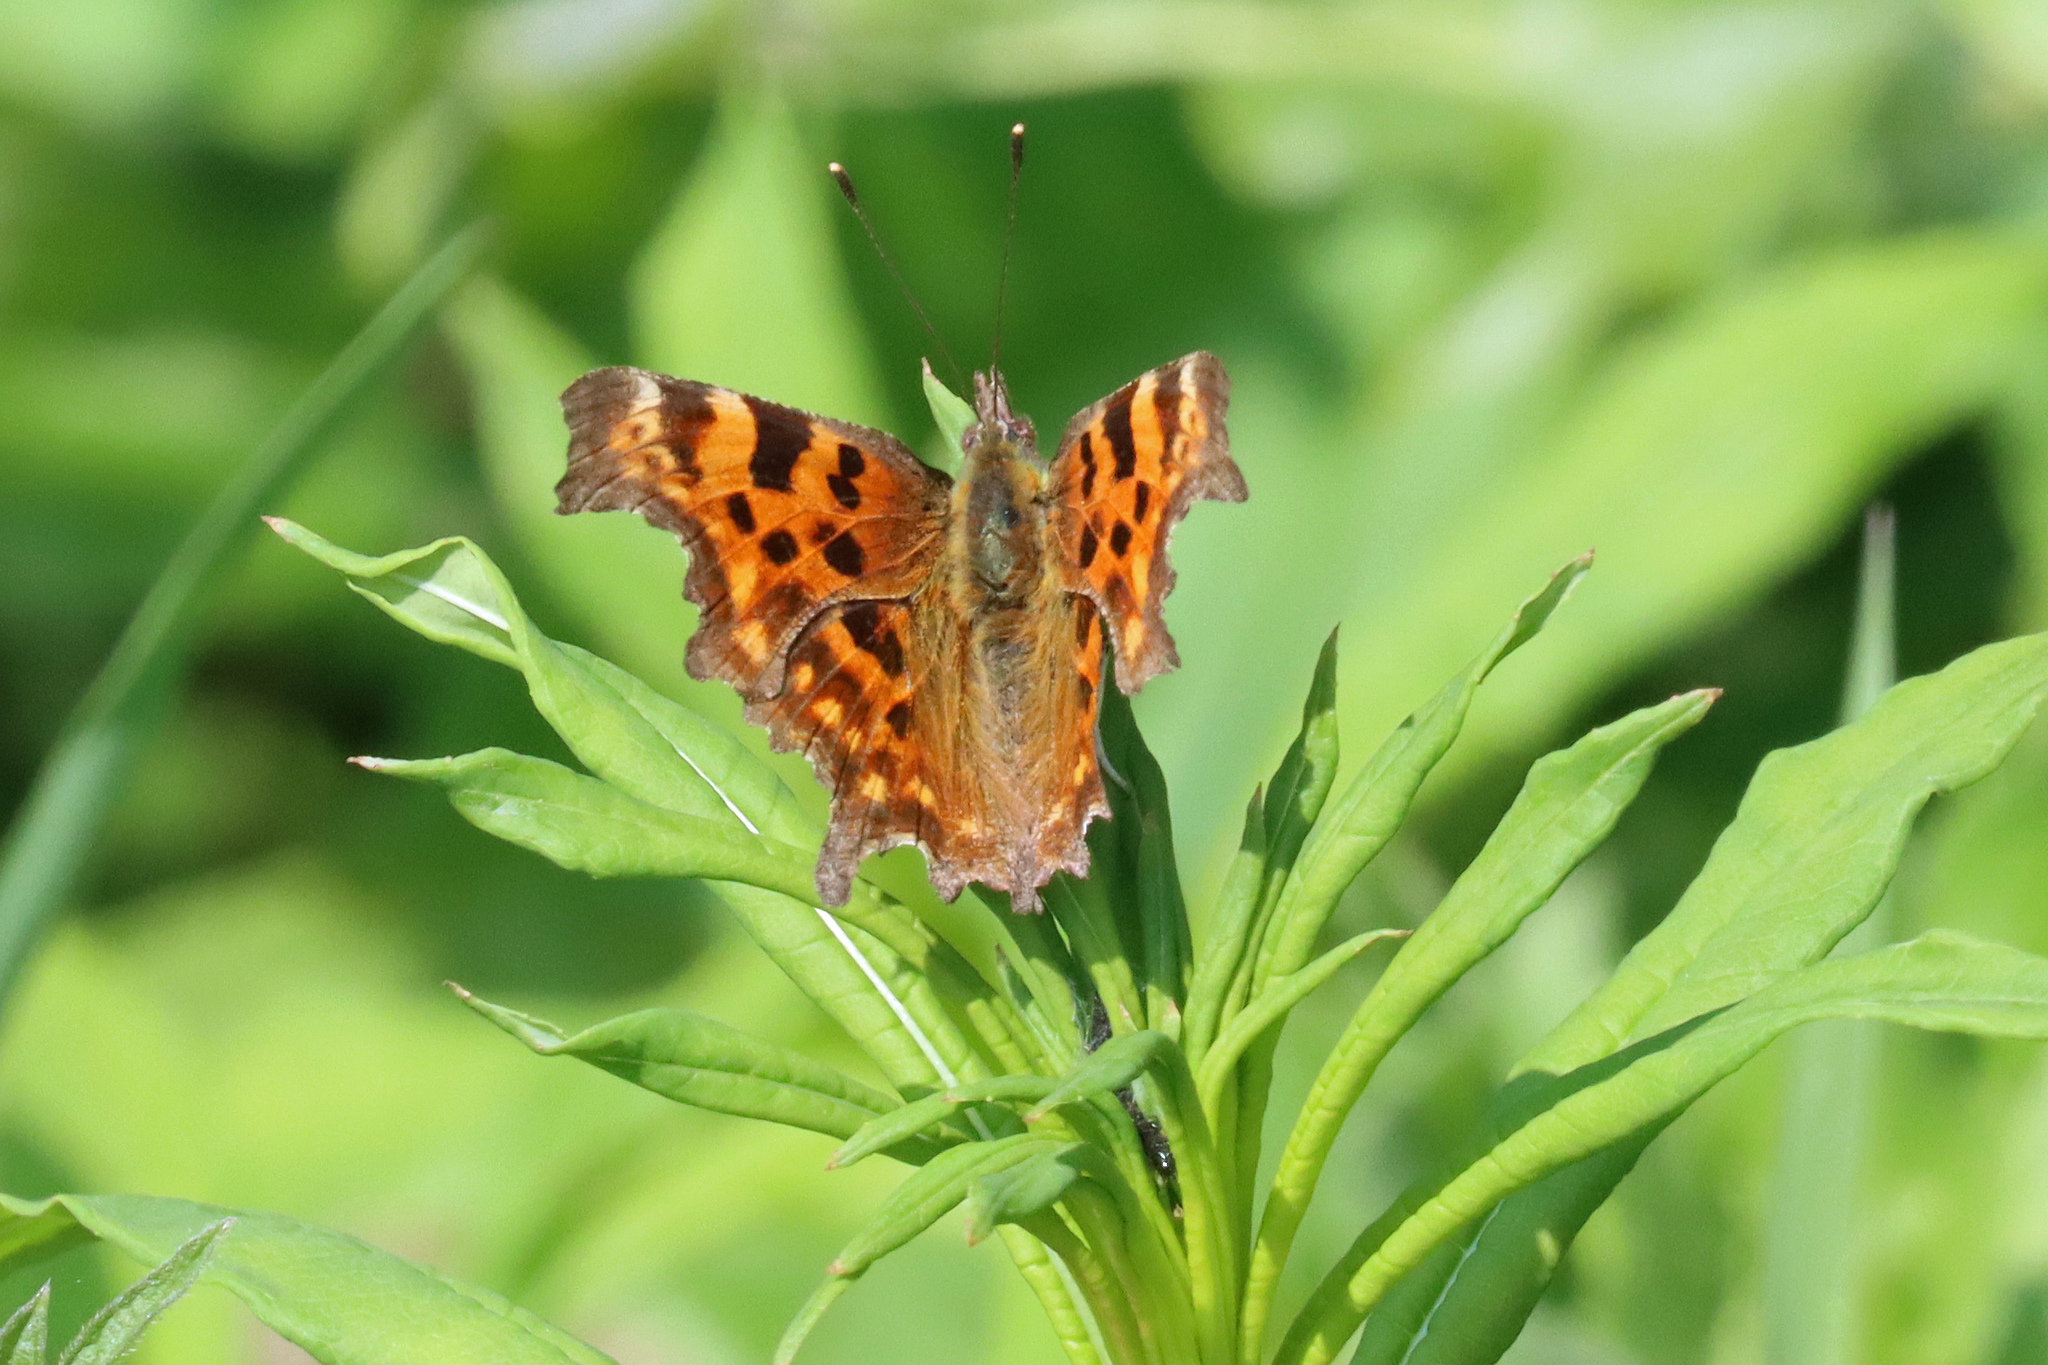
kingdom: Animalia
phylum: Arthropoda
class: Insecta
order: Lepidoptera
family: Nymphalidae
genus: Polygonia
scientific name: Polygonia c-album
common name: Comma
